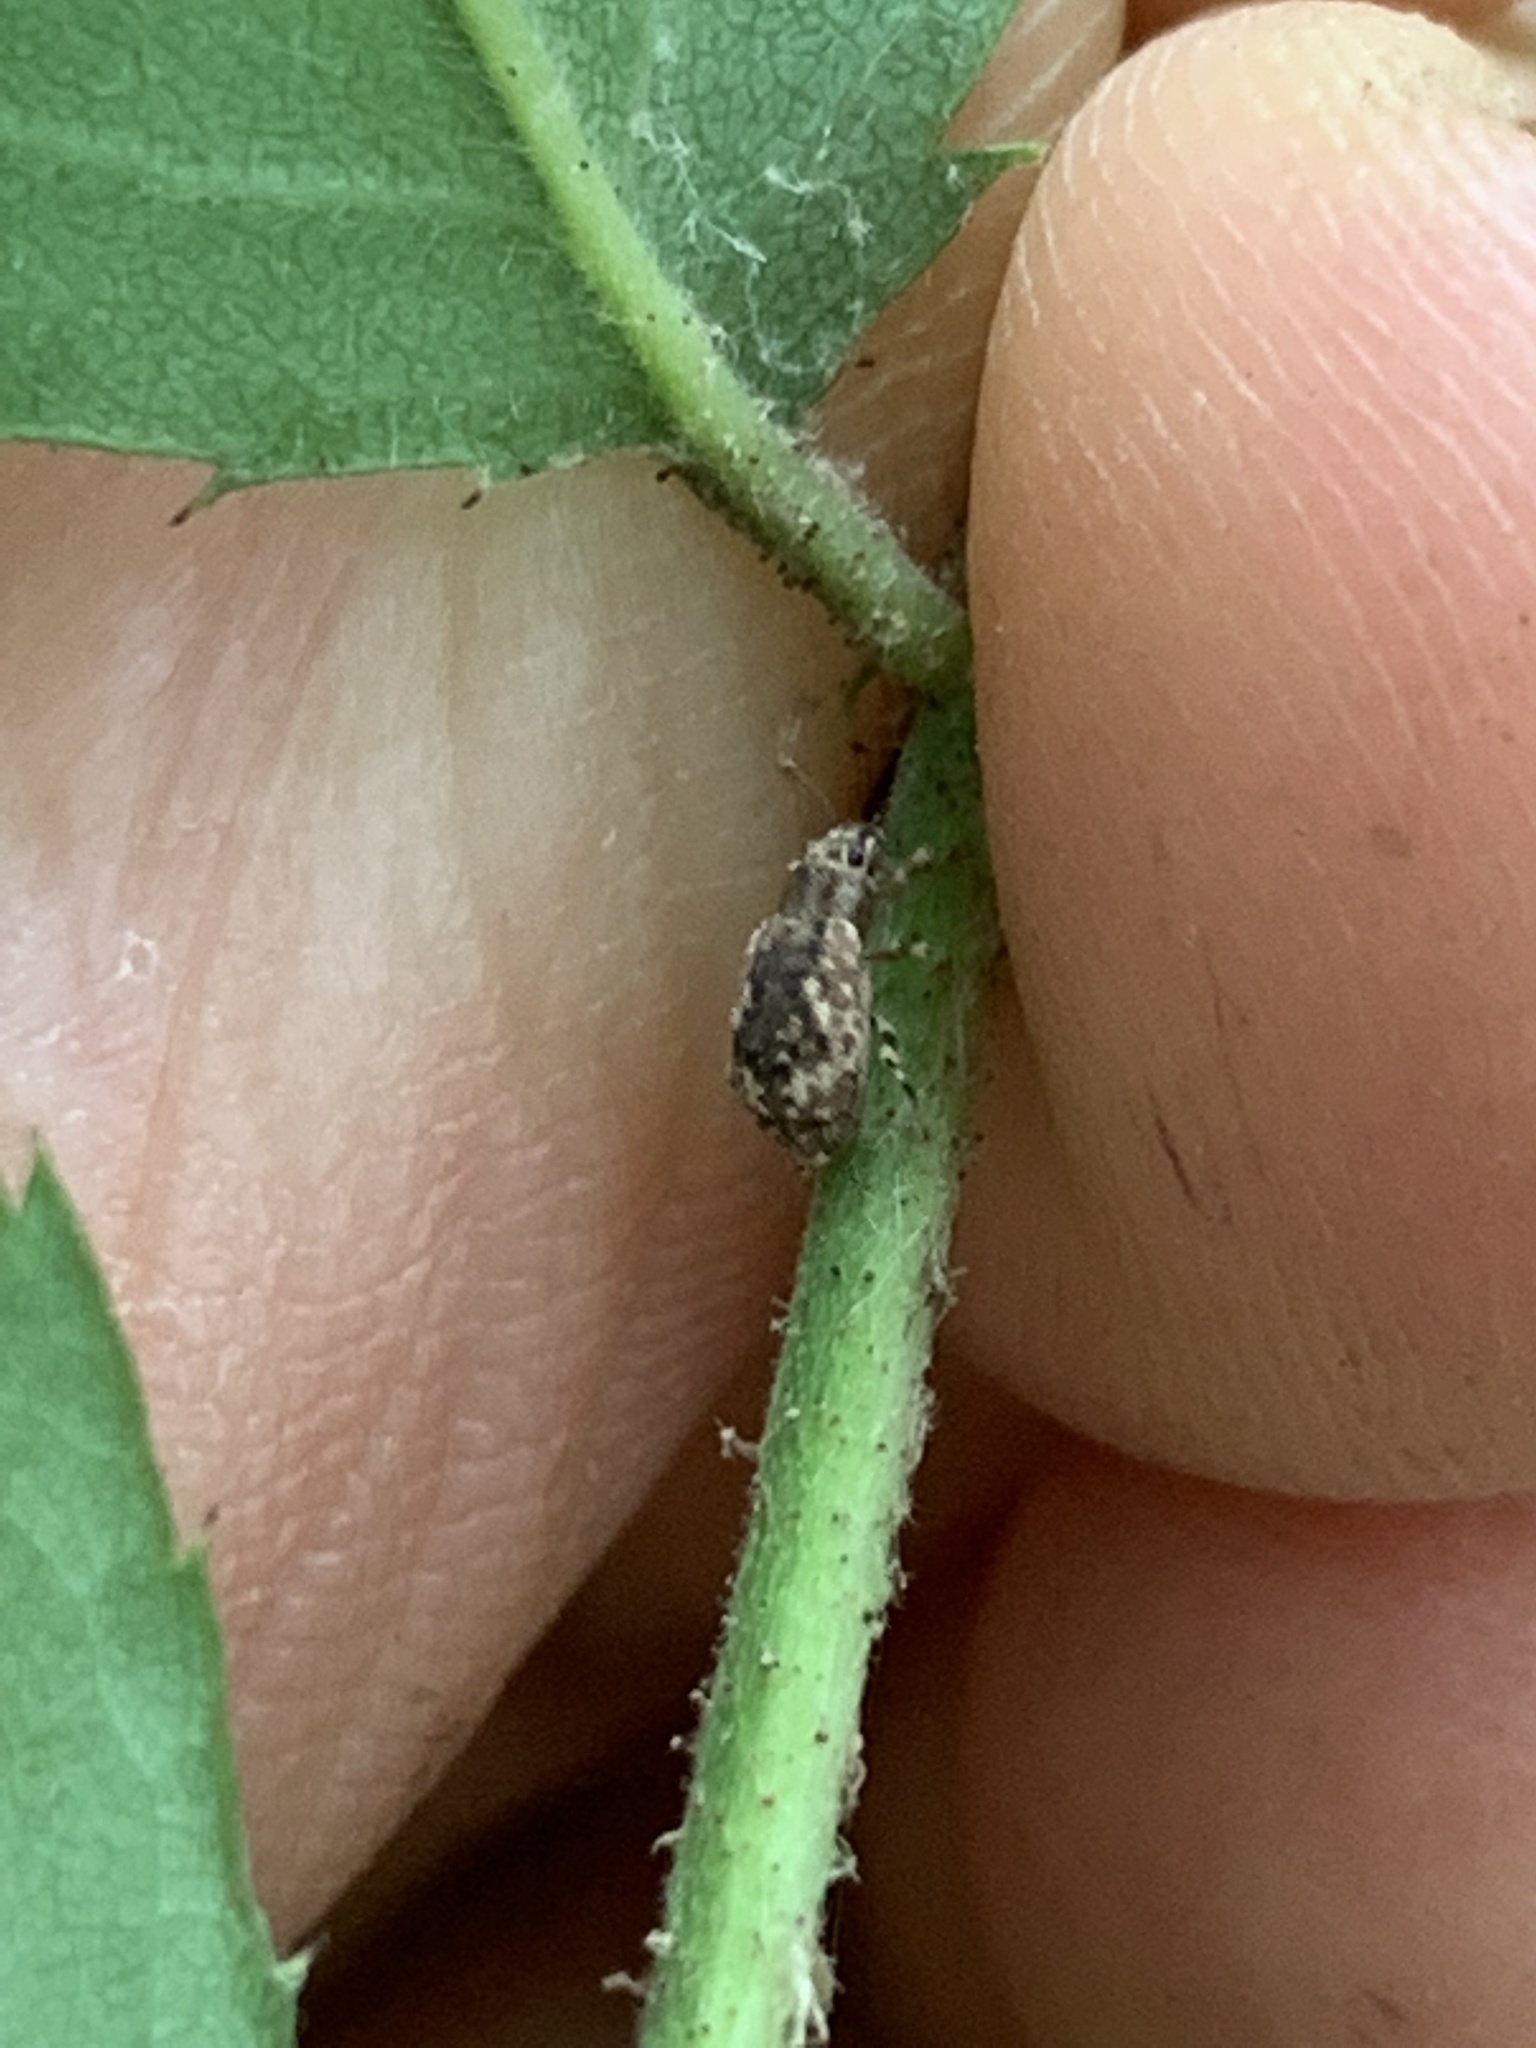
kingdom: Animalia
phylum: Arthropoda
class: Insecta
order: Coleoptera
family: Curculionidae
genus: Pseudoedophrys
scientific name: Pseudoedophrys hilleri
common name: Weevil
